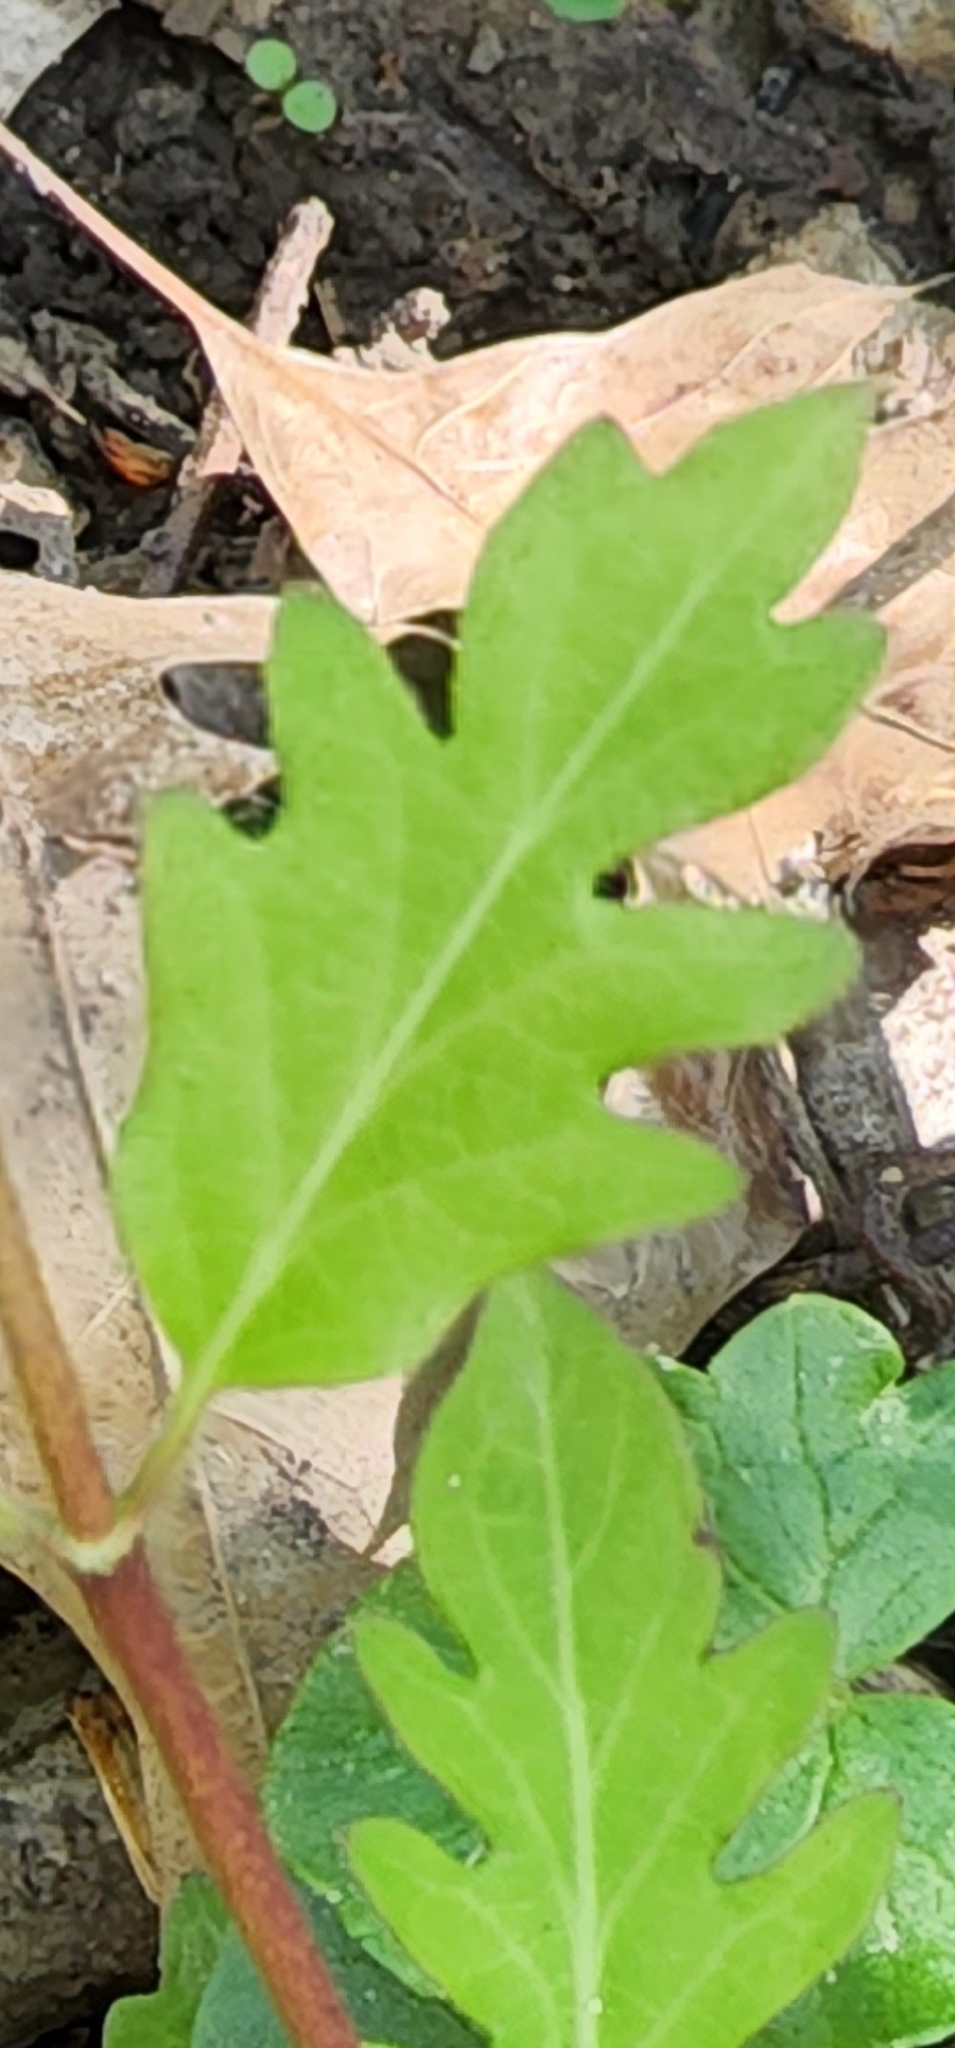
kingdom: Plantae
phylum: Tracheophyta
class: Magnoliopsida
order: Dipsacales
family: Caprifoliaceae
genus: Lonicera
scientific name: Lonicera japonica
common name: Japanese honeysuckle
